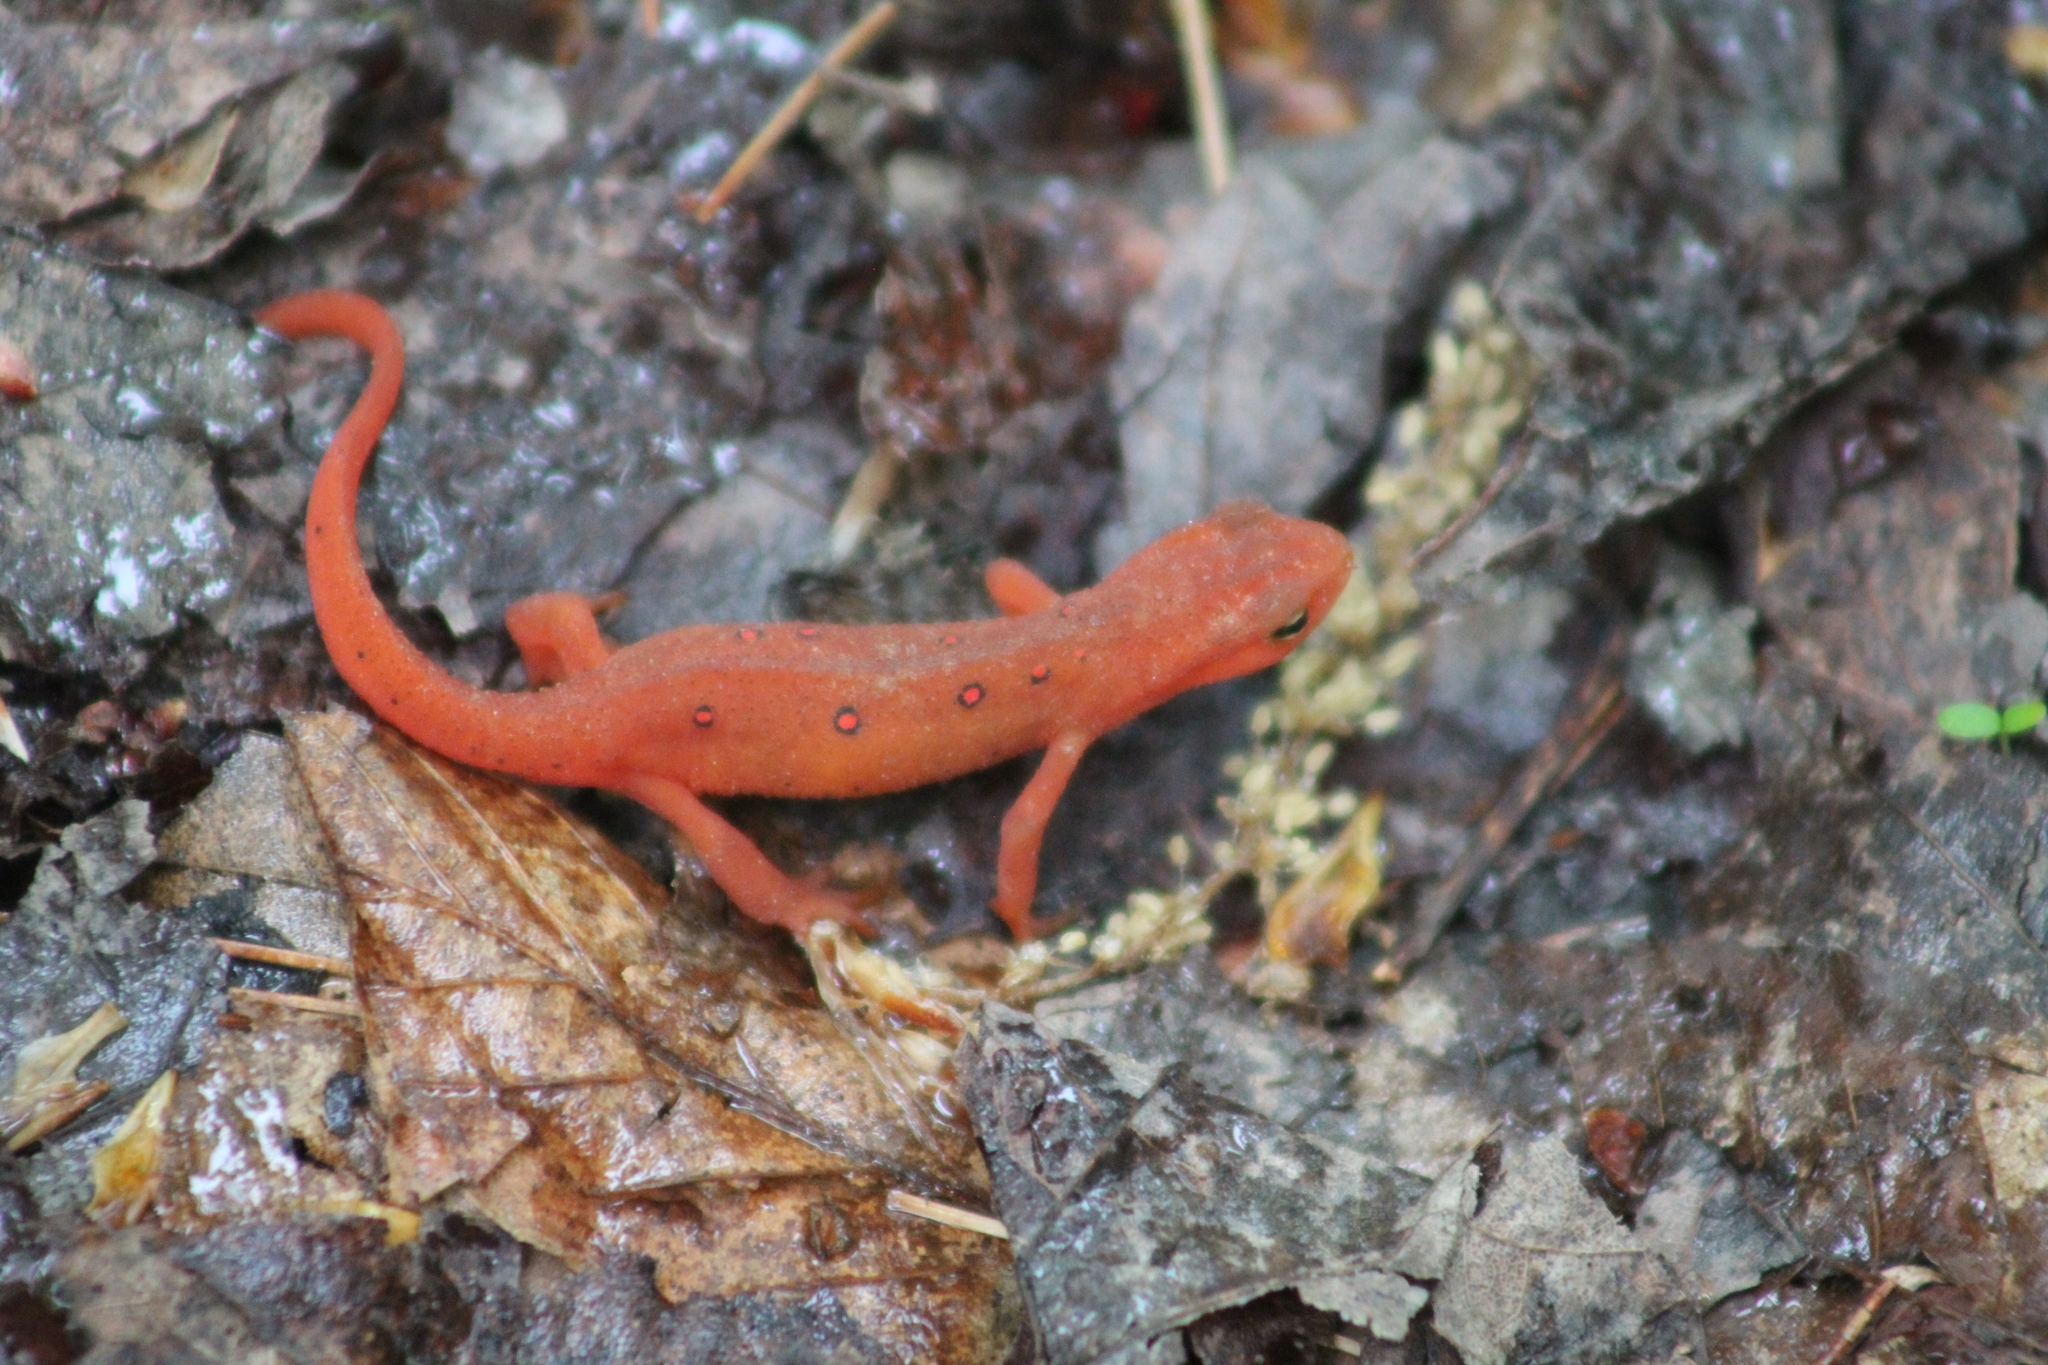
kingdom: Animalia
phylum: Chordata
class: Amphibia
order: Caudata
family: Salamandridae
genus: Notophthalmus
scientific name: Notophthalmus viridescens
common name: Eastern newt
